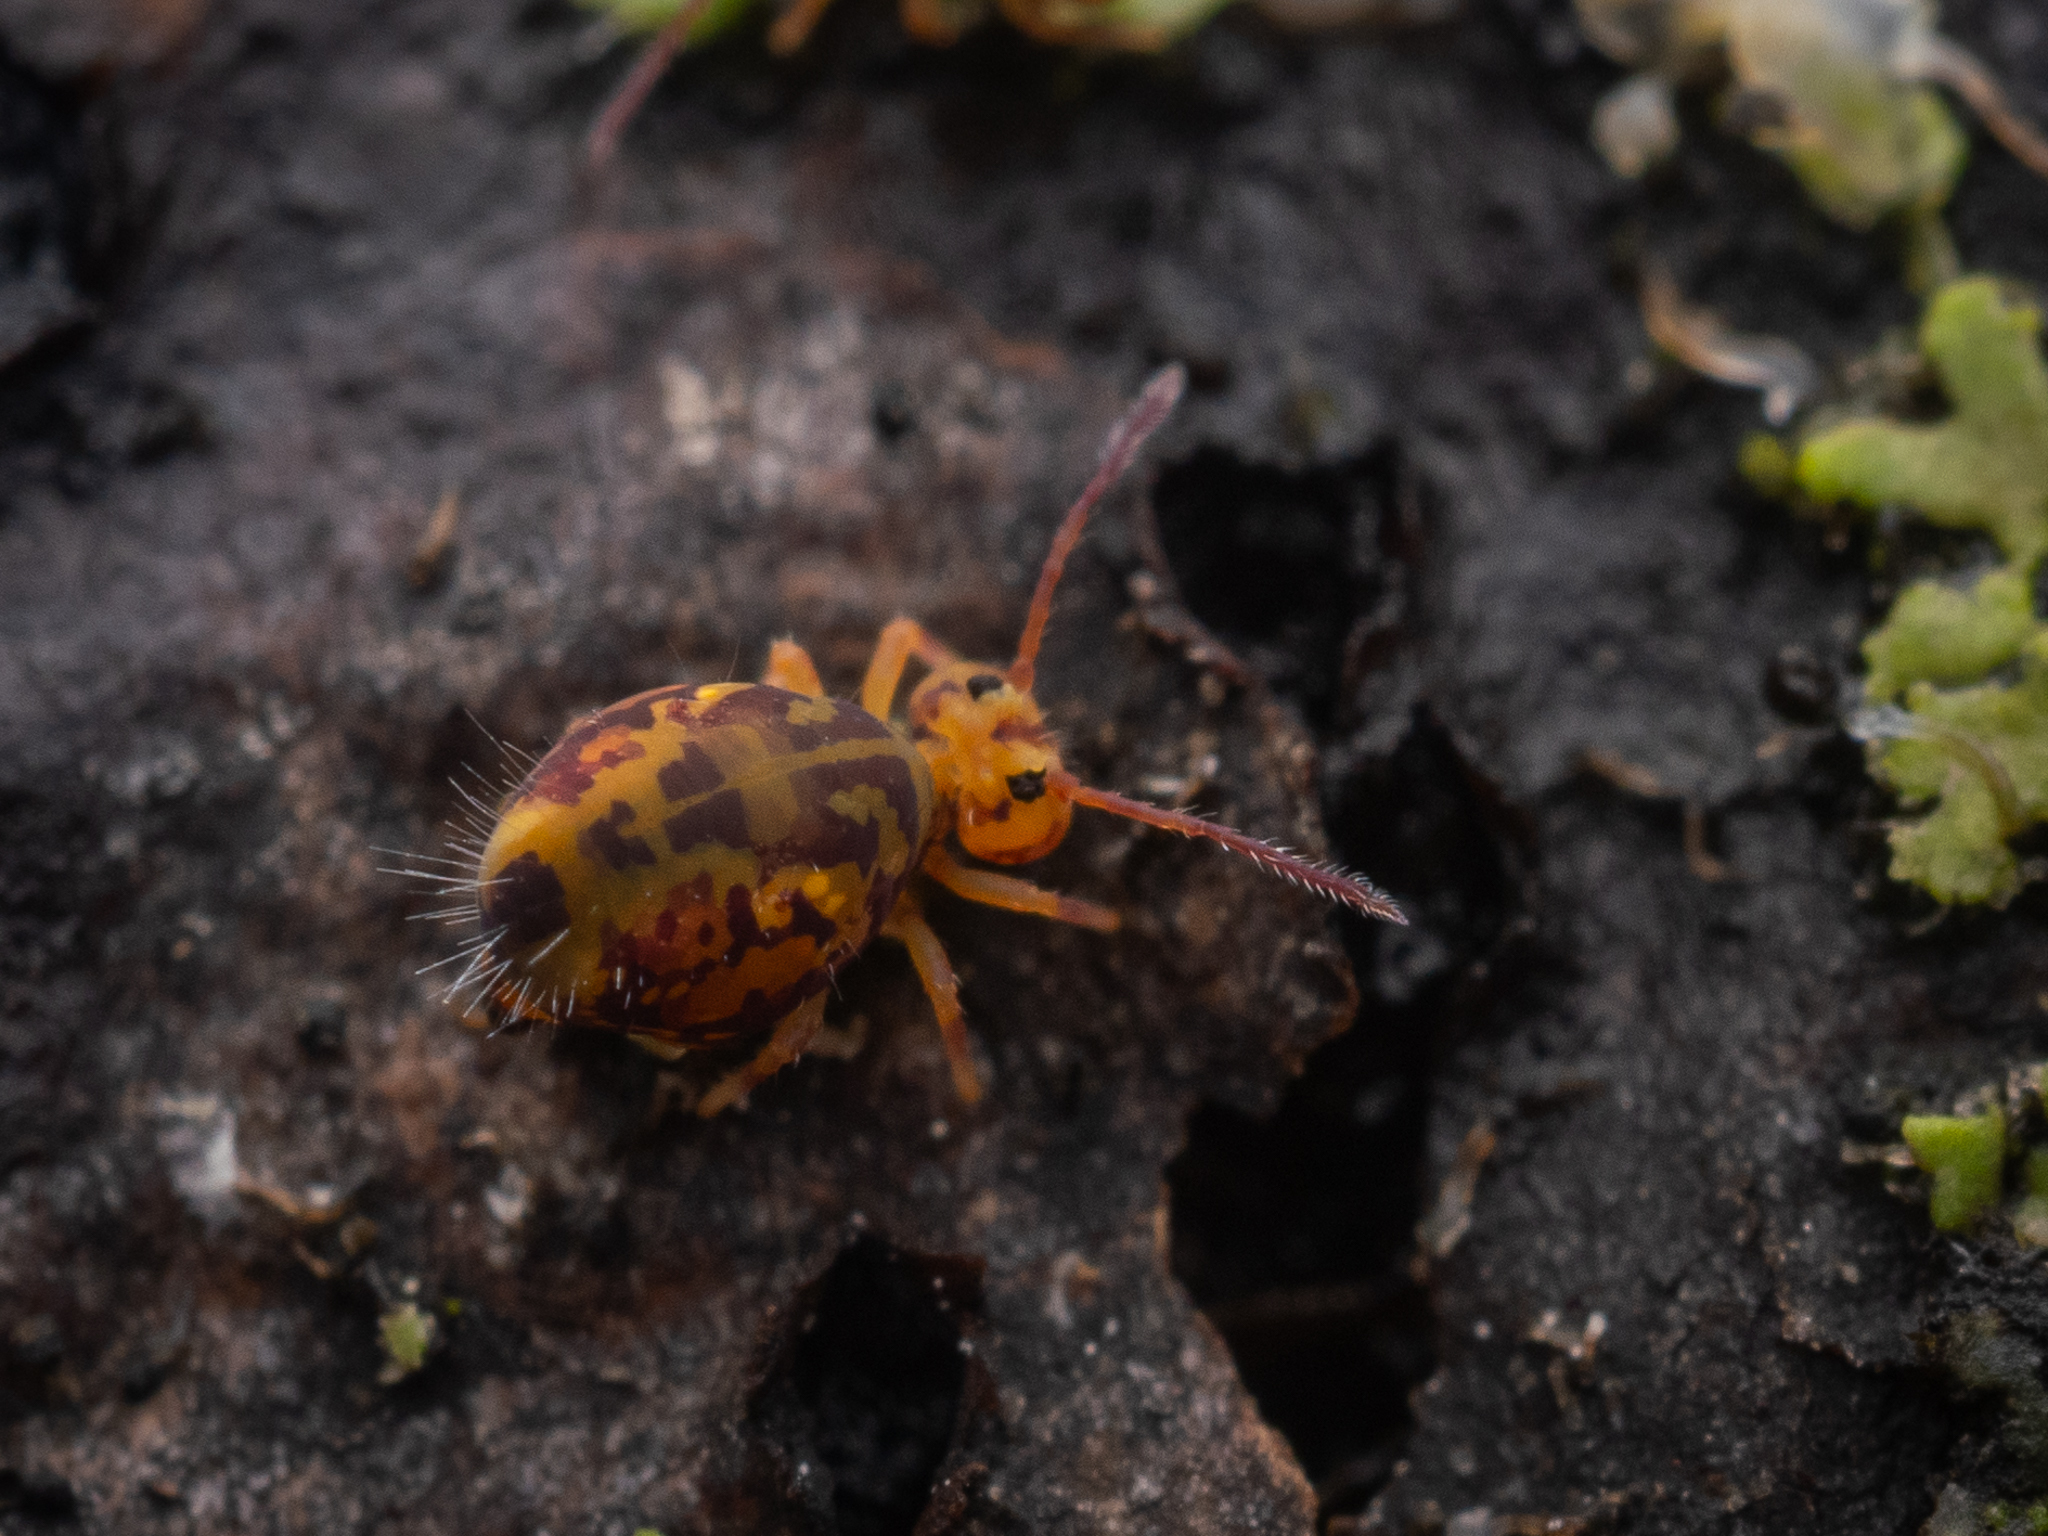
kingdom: Animalia
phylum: Arthropoda
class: Collembola
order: Symphypleona
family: Dicyrtomidae
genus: Dicyrtomina
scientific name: Dicyrtomina ornata
